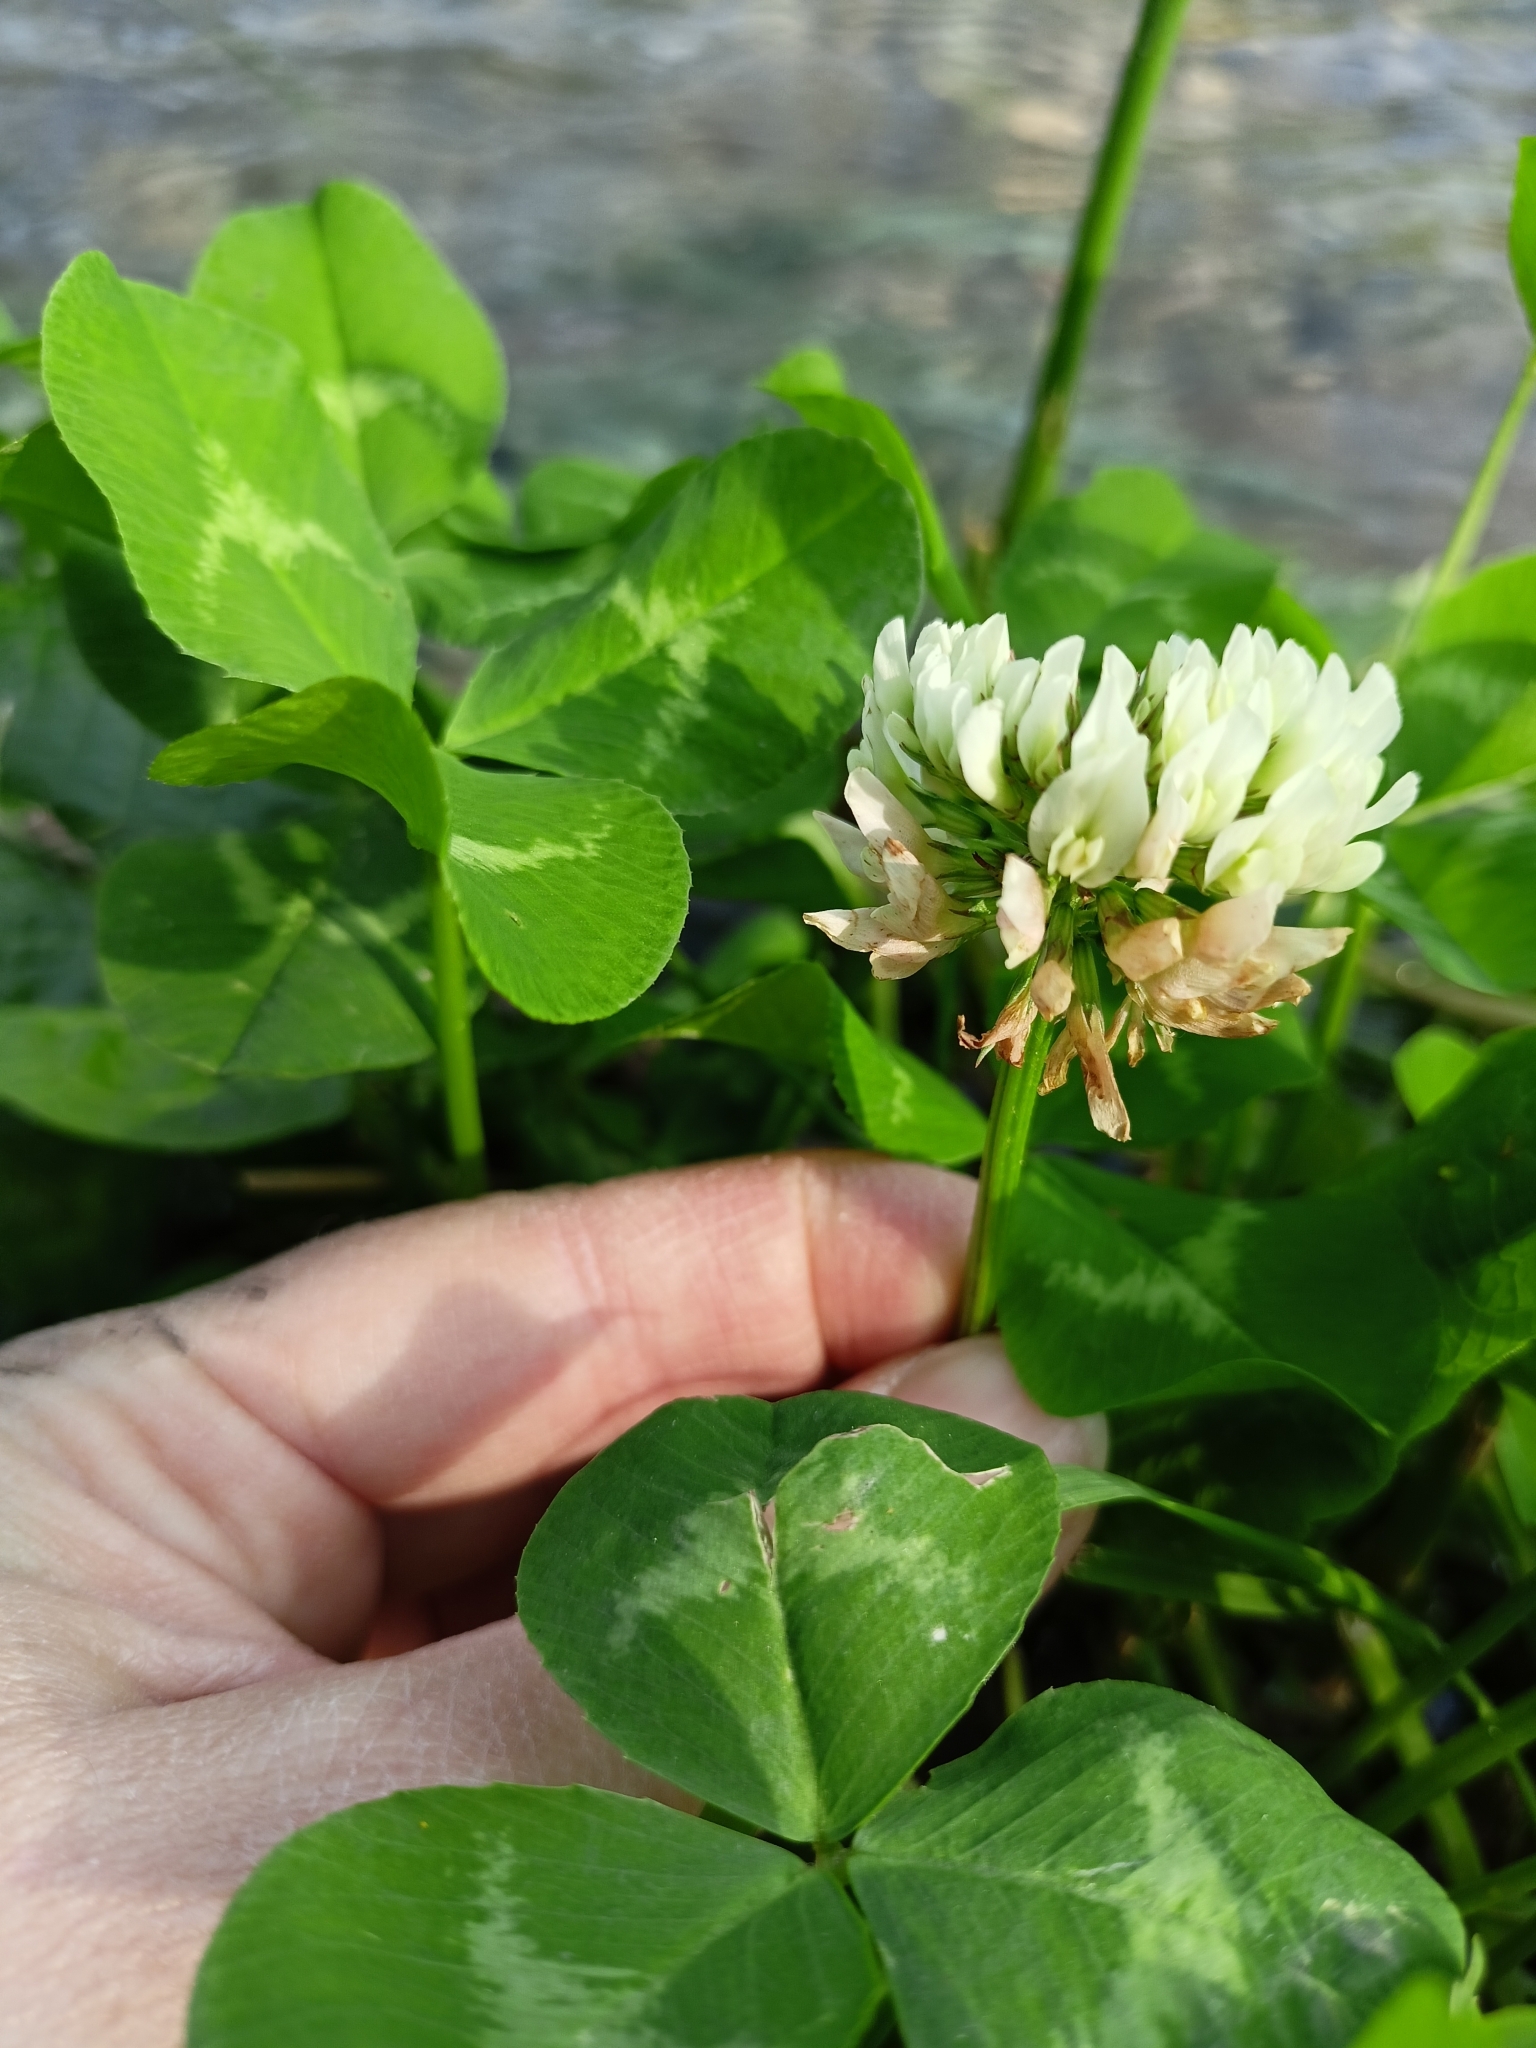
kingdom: Plantae
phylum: Tracheophyta
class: Magnoliopsida
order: Fabales
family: Fabaceae
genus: Trifolium
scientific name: Trifolium repens
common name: White clover
